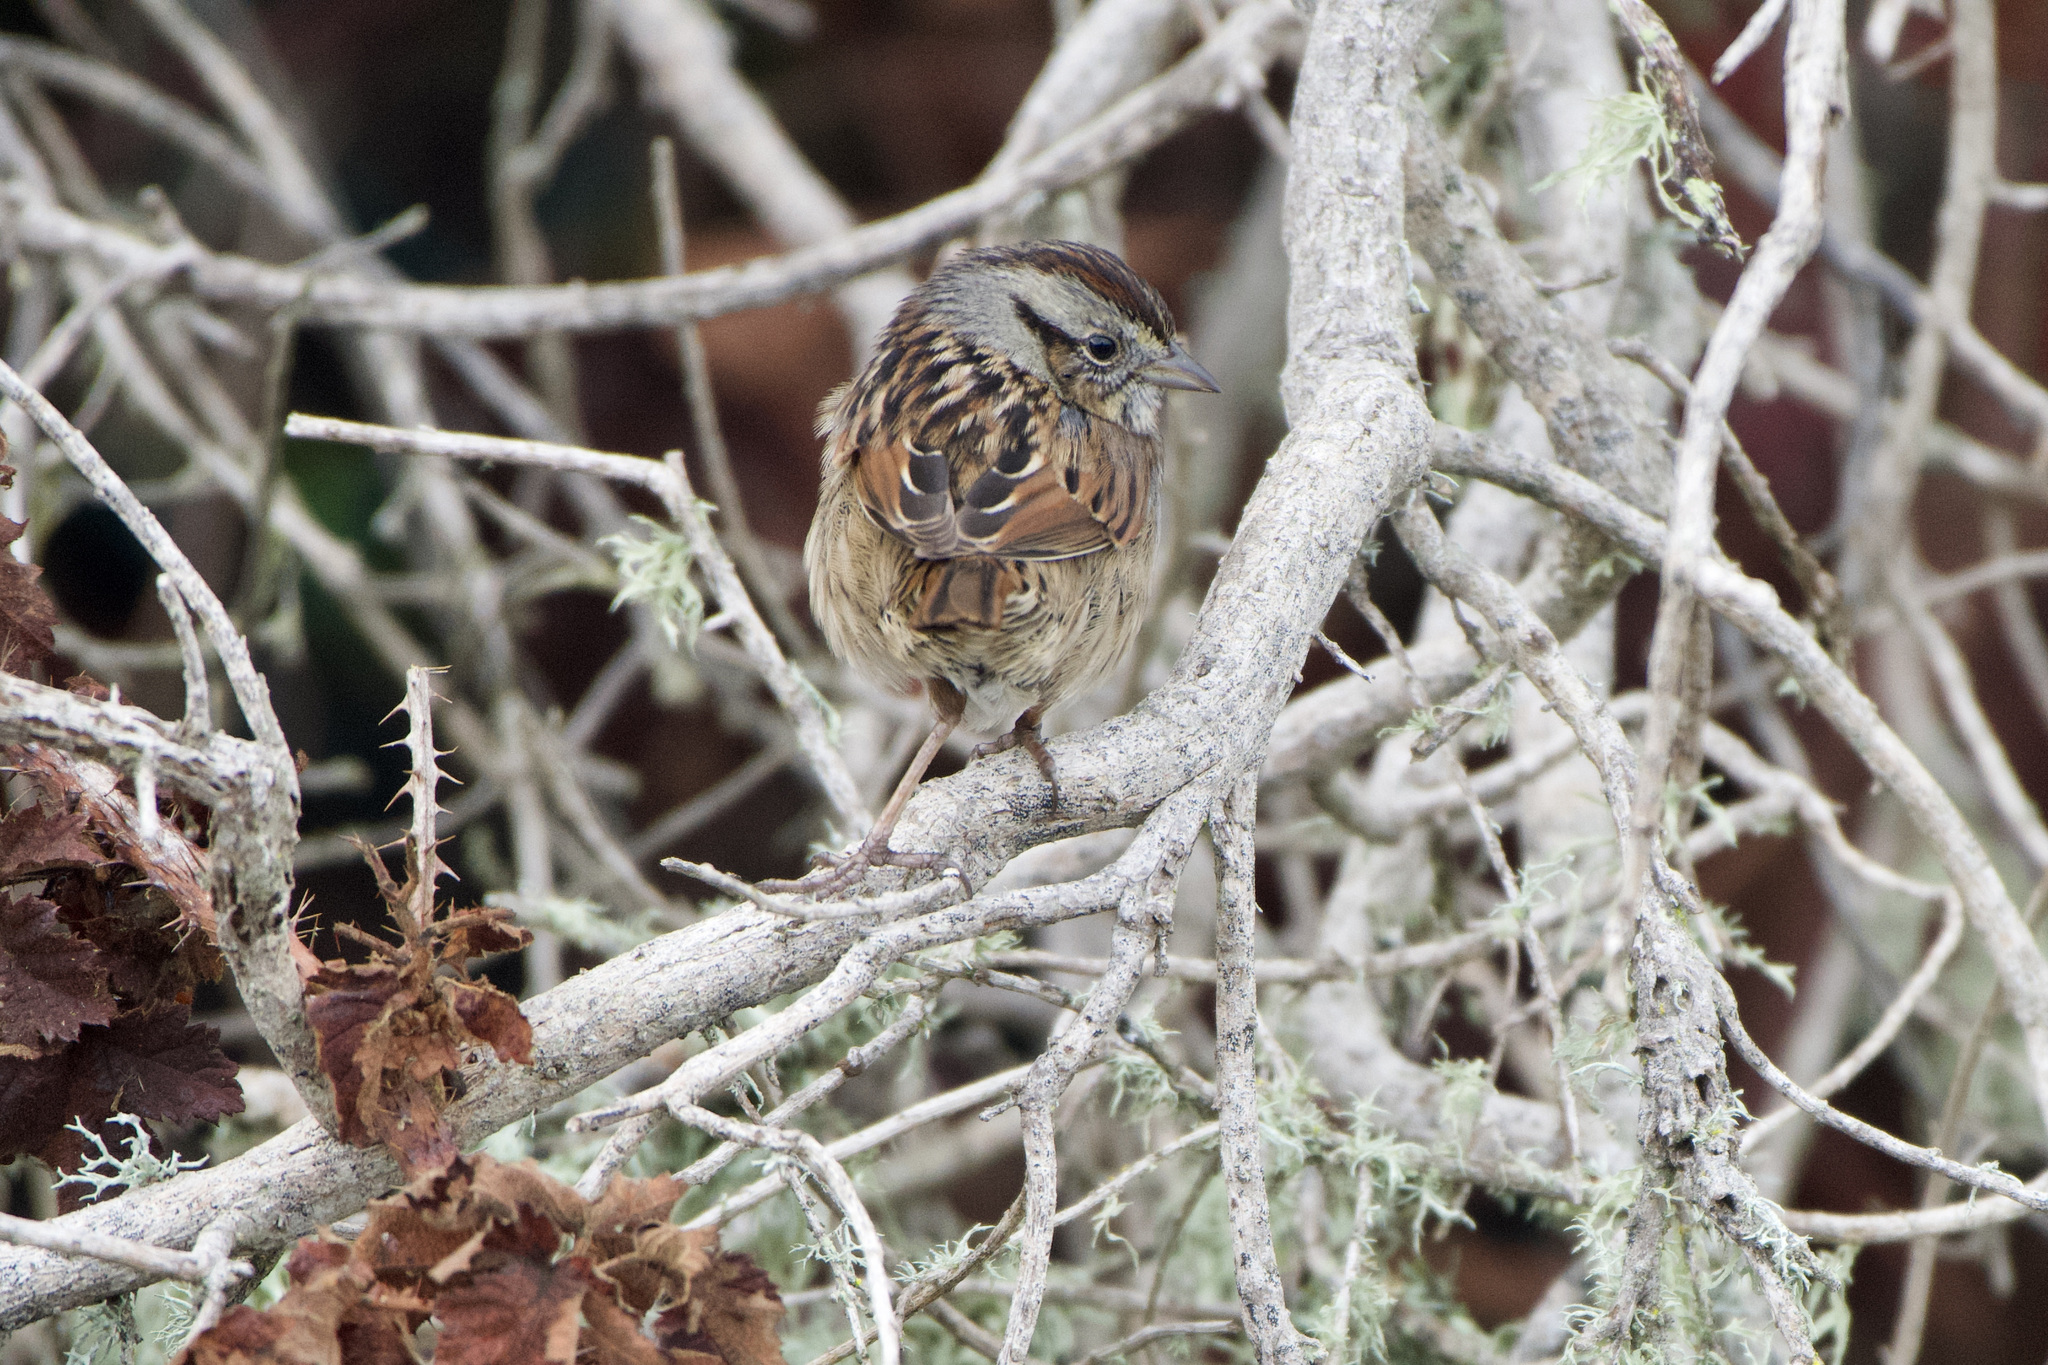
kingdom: Animalia
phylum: Chordata
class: Aves
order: Passeriformes
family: Passerellidae
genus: Melospiza
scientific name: Melospiza georgiana
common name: Swamp sparrow
